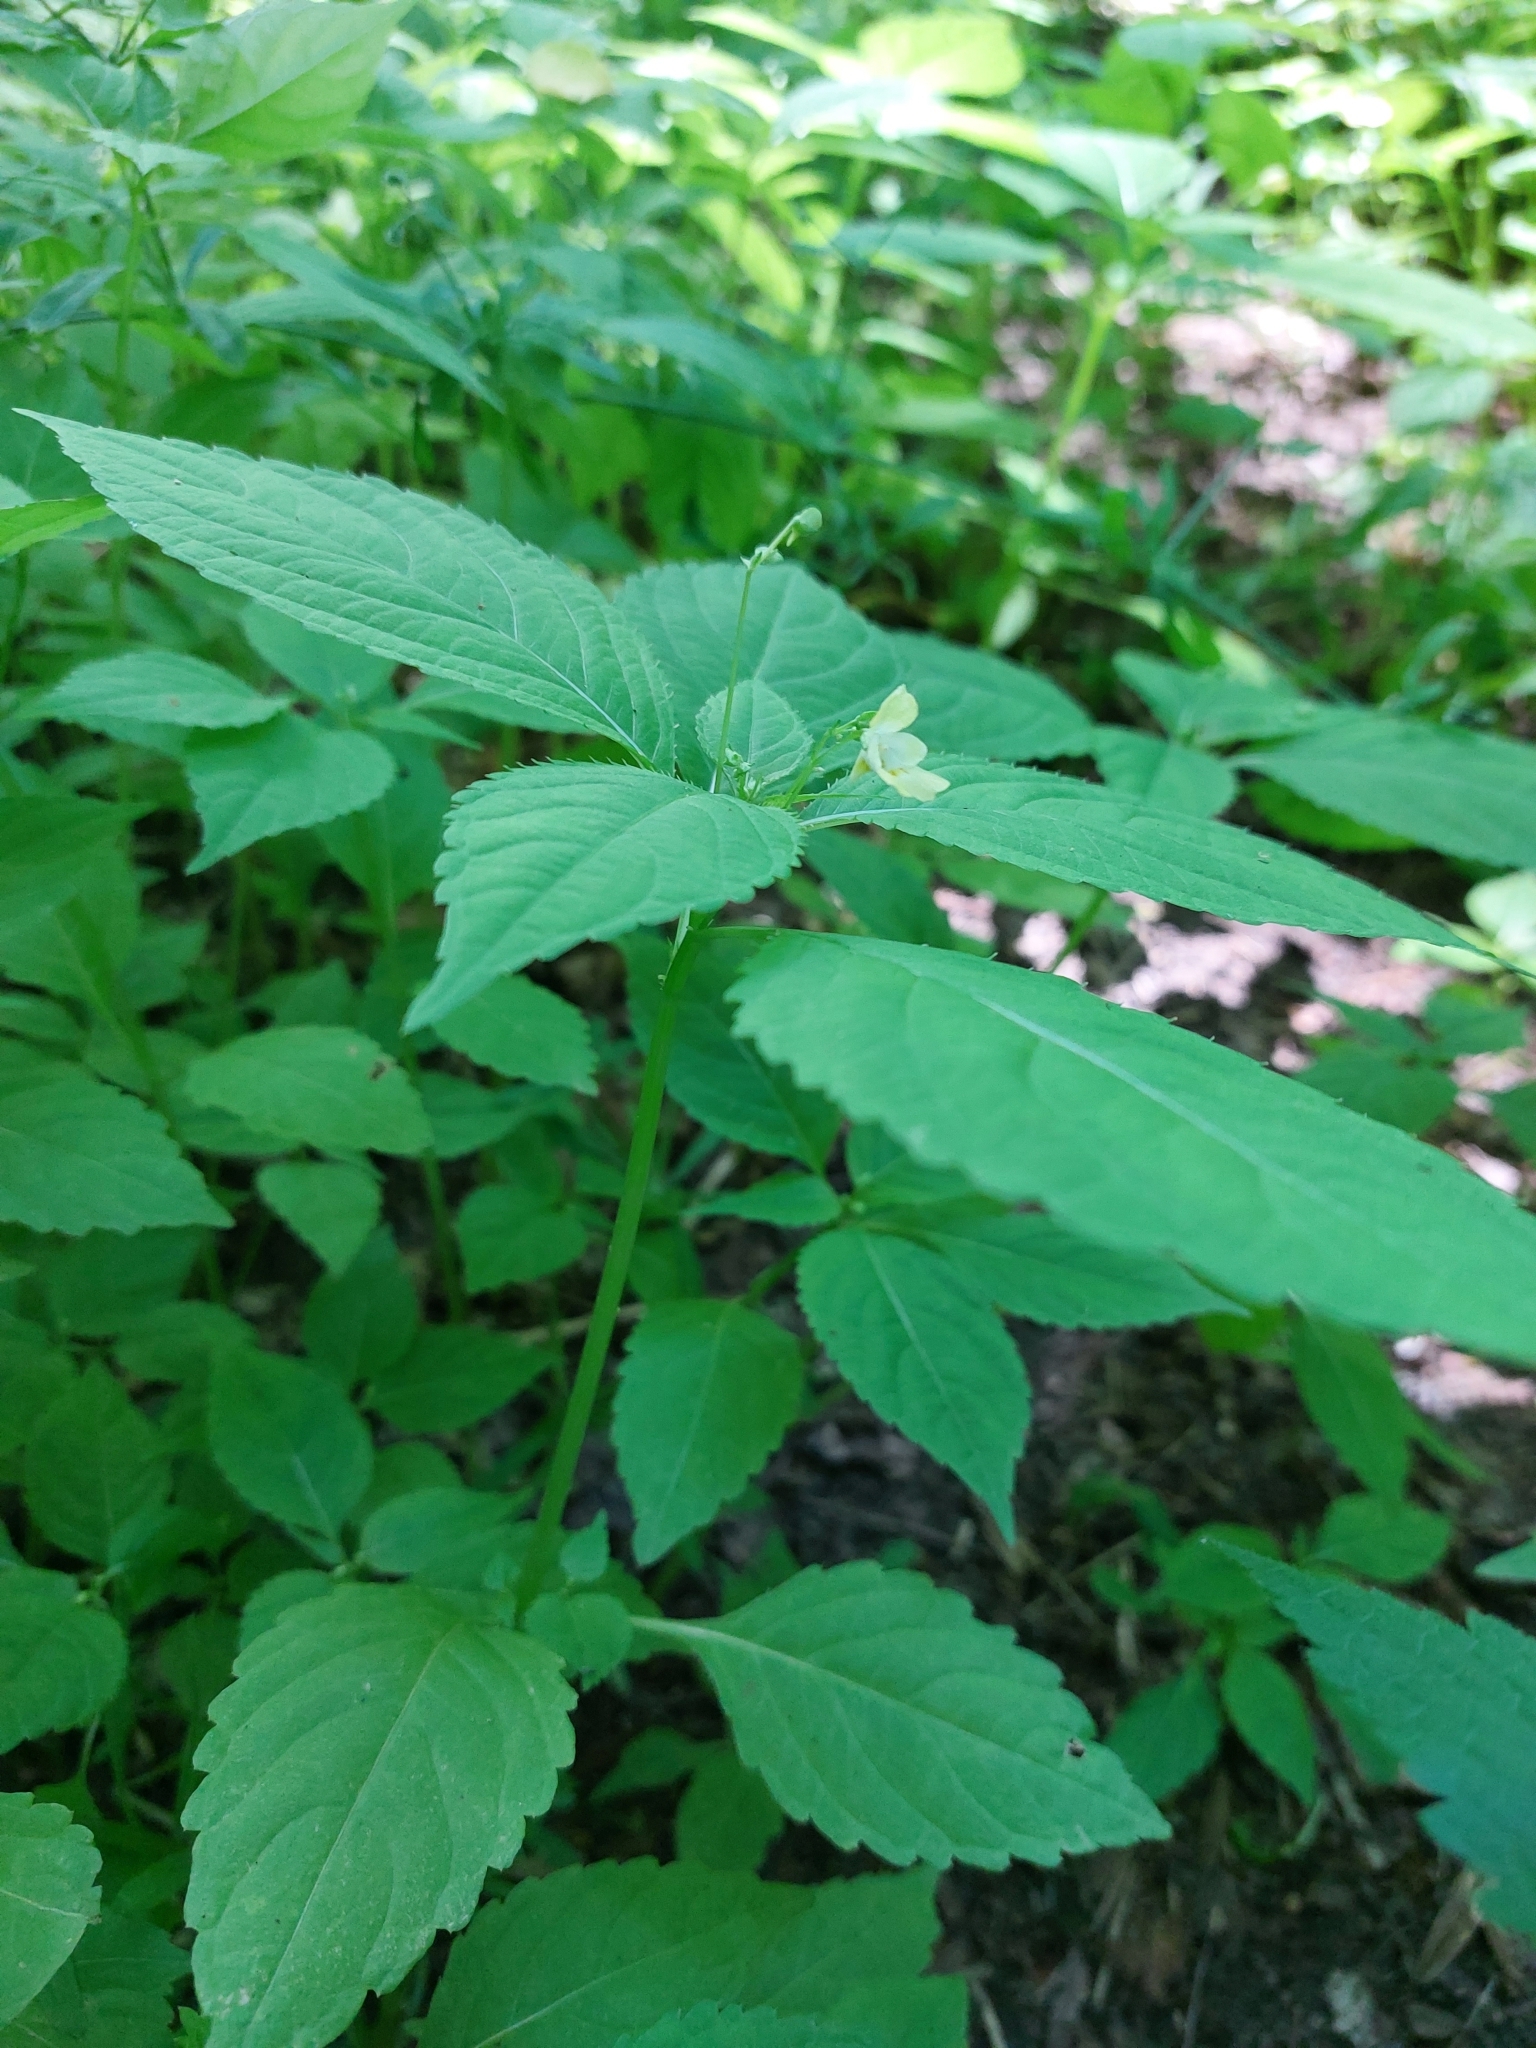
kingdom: Plantae
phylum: Tracheophyta
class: Magnoliopsida
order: Ericales
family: Balsaminaceae
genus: Impatiens
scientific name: Impatiens parviflora
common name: Small balsam
